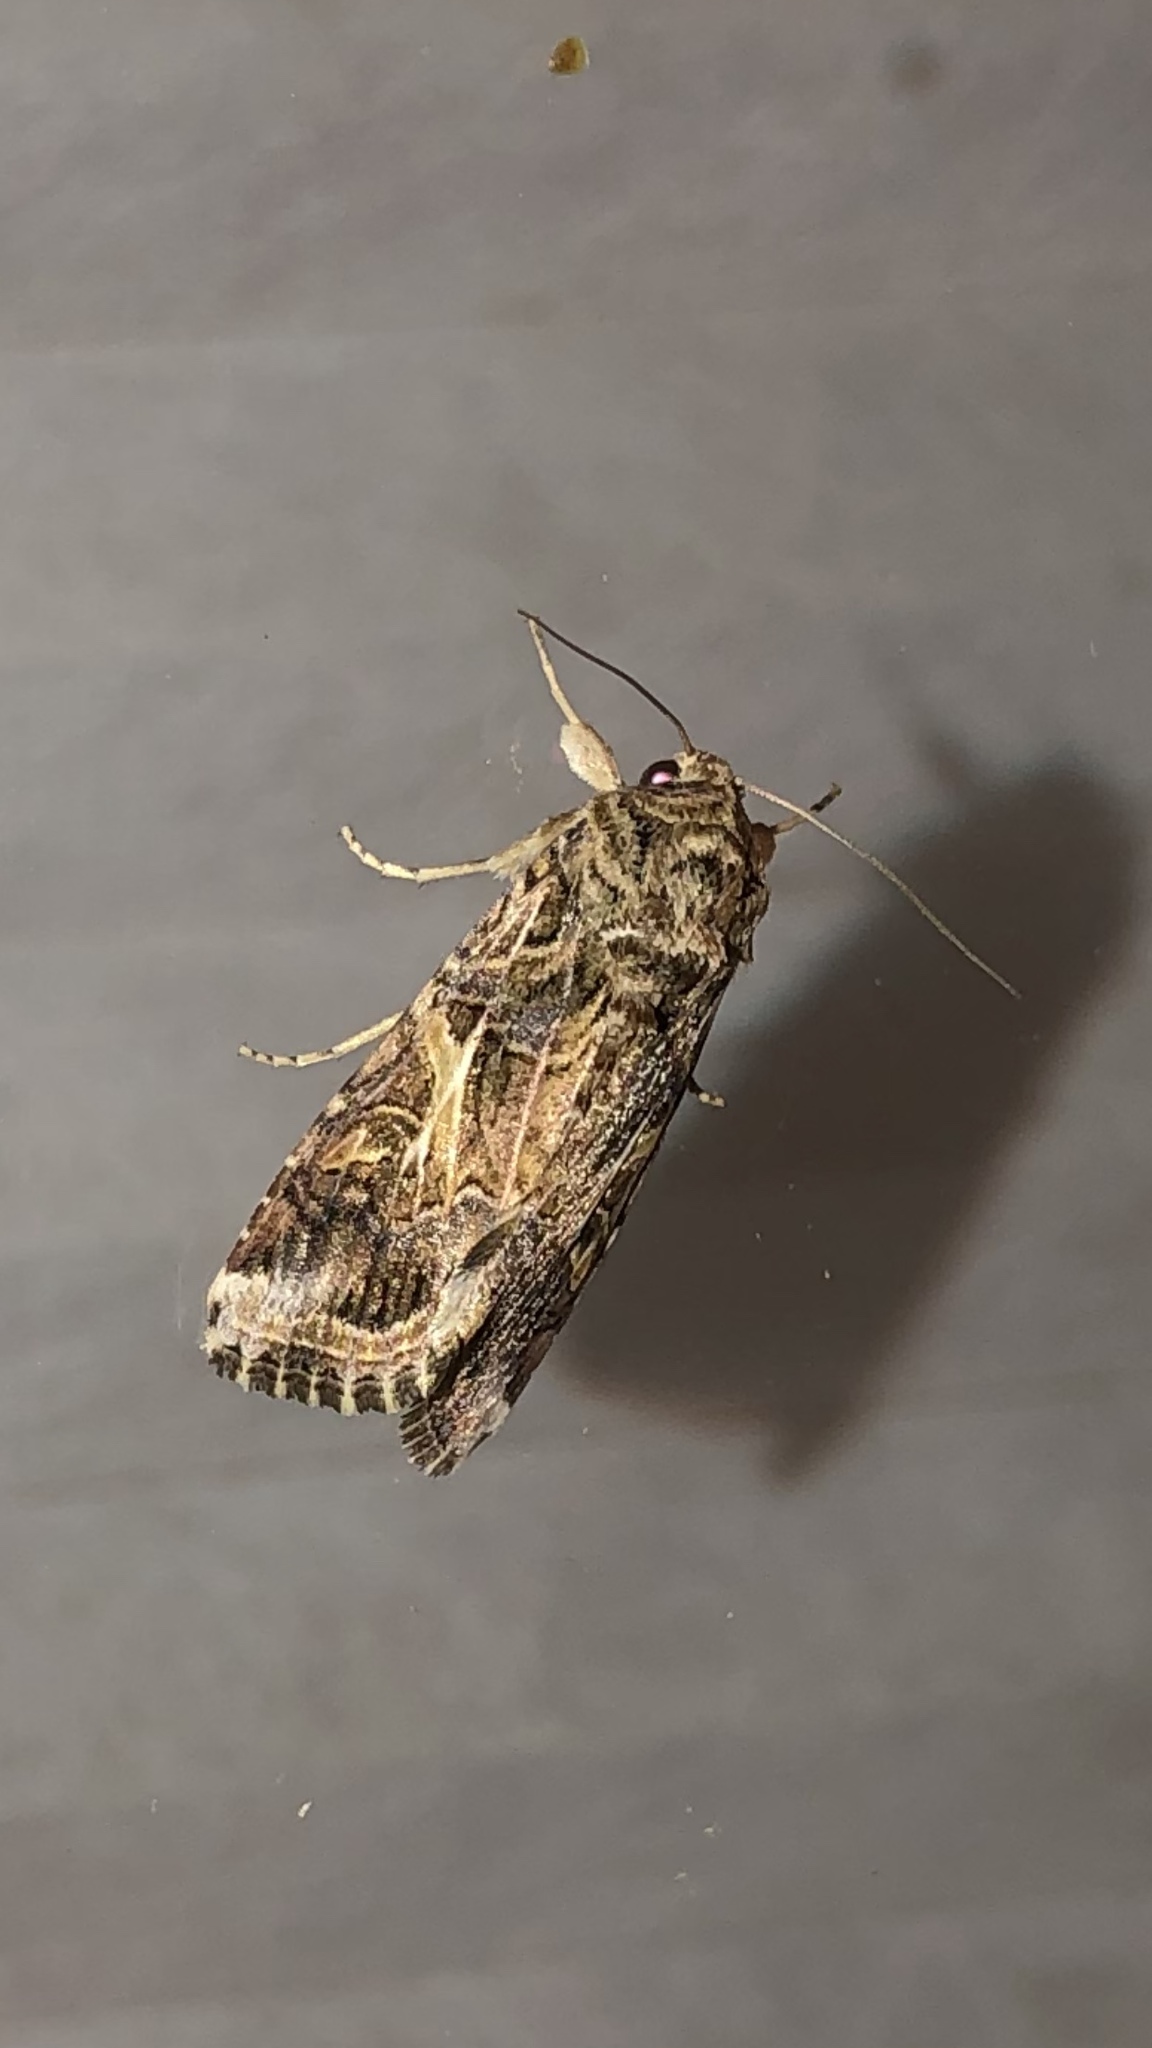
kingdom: Animalia
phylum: Arthropoda
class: Insecta
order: Lepidoptera
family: Noctuidae
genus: Spodoptera
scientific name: Spodoptera ornithogalli
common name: Yellow-striped armyworm
